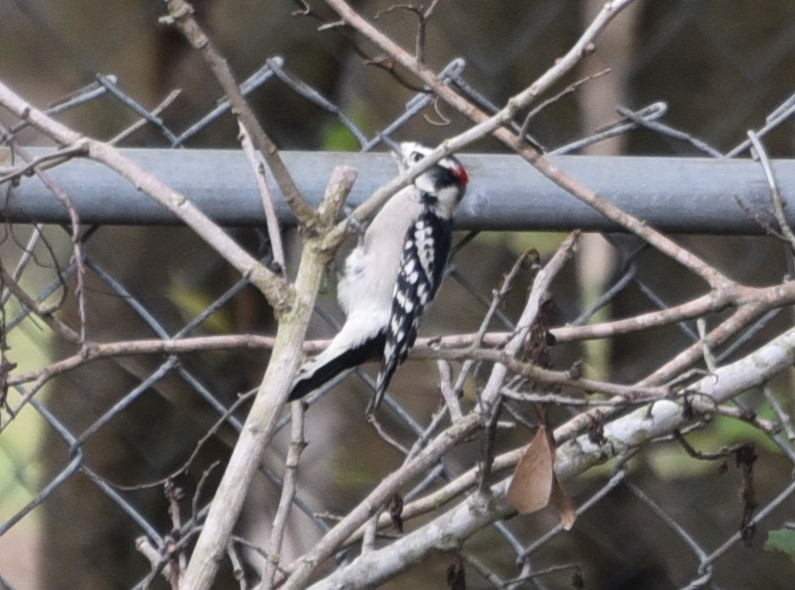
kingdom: Animalia
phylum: Chordata
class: Aves
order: Piciformes
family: Picidae
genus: Dryobates
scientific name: Dryobates pubescens
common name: Downy woodpecker
